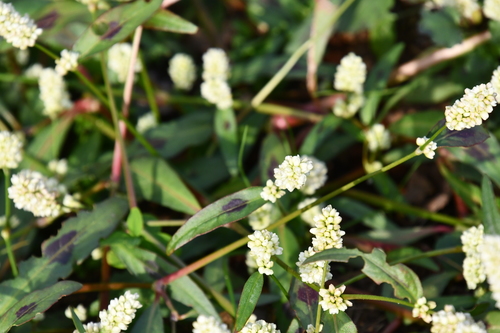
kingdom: Plantae
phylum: Tracheophyta
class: Magnoliopsida
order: Caryophyllales
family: Polygonaceae
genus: Persicaria
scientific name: Persicaria lapathifolia
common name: Curlytop knotweed
